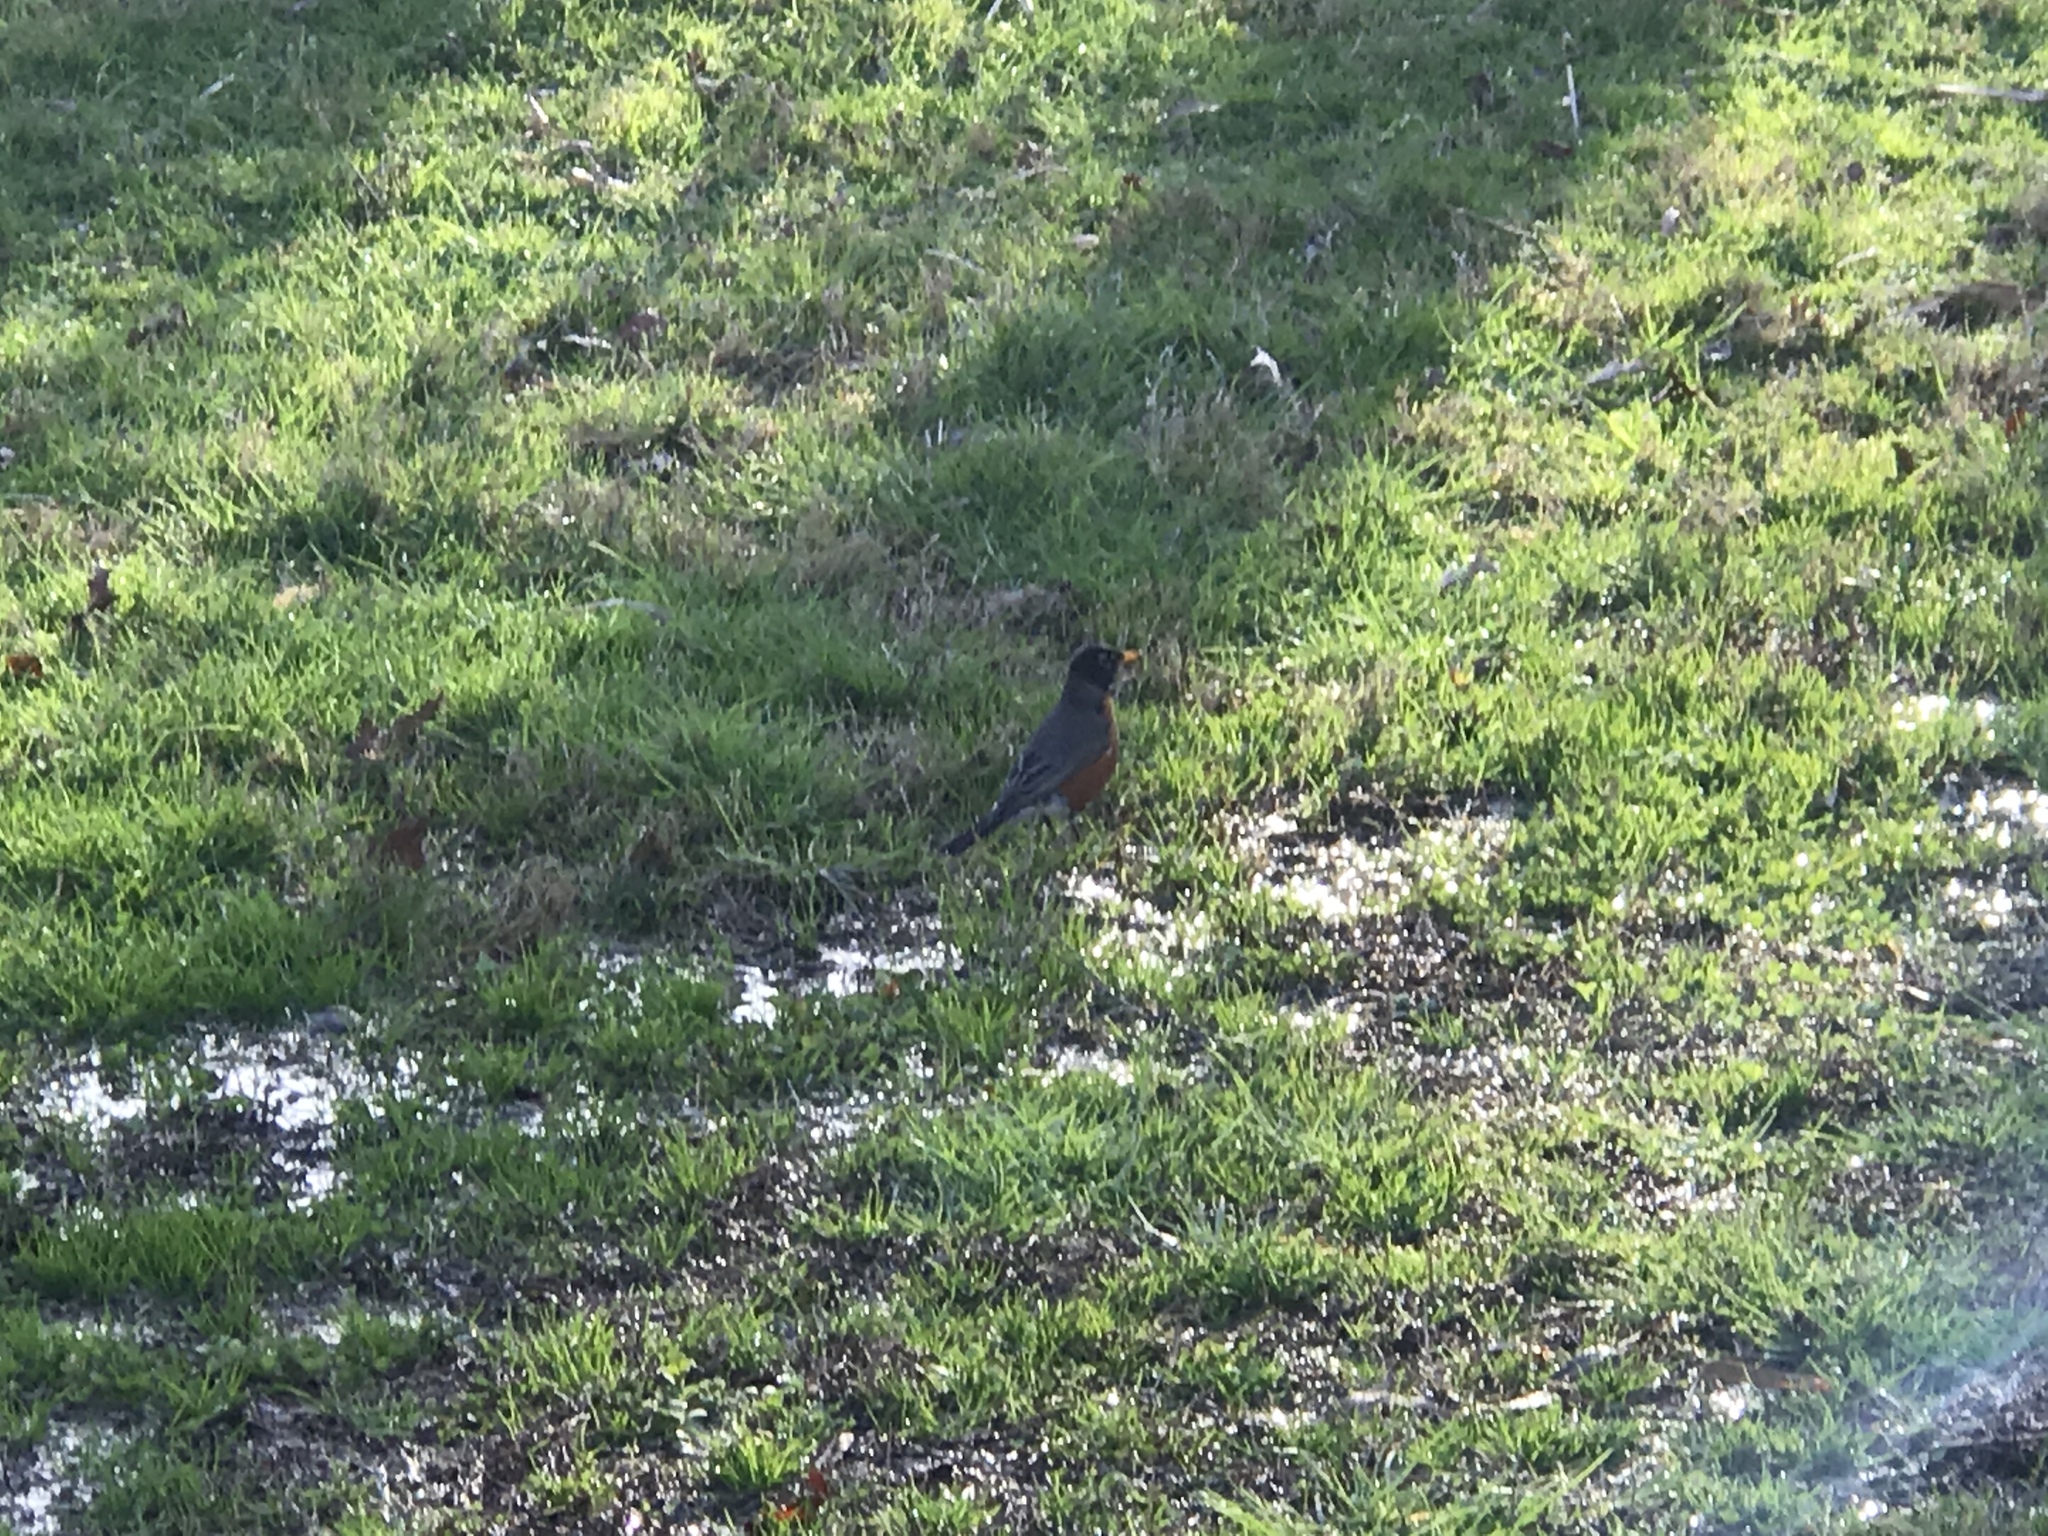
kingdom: Animalia
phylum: Chordata
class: Aves
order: Passeriformes
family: Turdidae
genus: Turdus
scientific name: Turdus migratorius
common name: American robin
